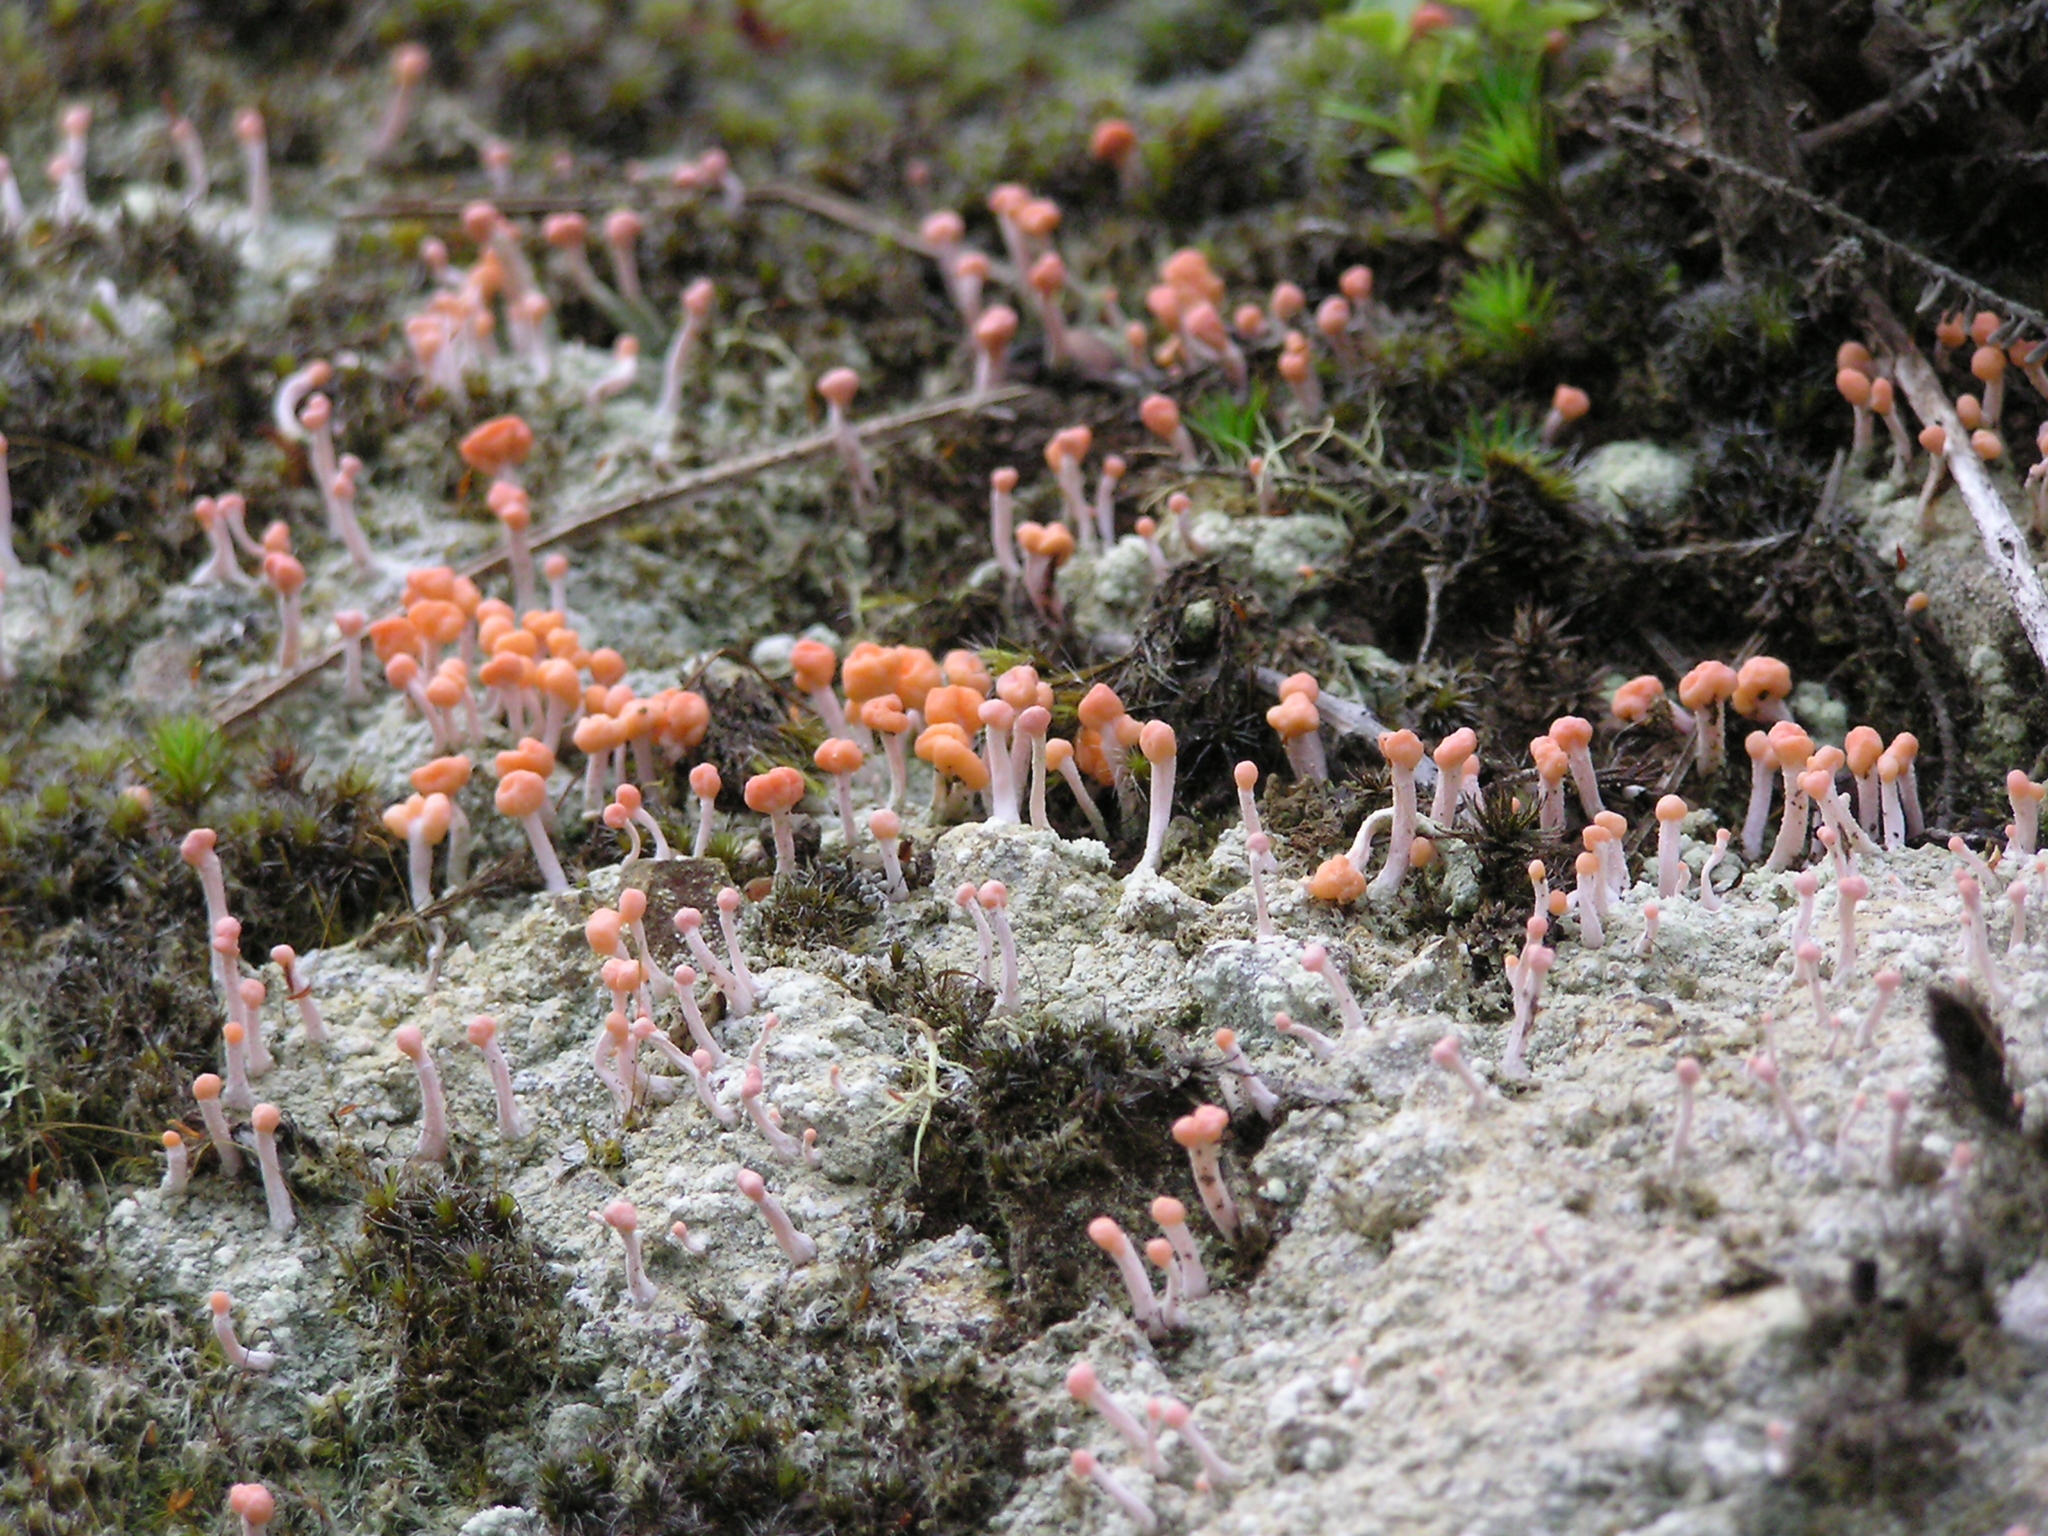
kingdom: Fungi
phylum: Ascomycota
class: Lecanoromycetes
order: Pertusariales
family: Icmadophilaceae
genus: Dibaeis
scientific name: Dibaeis arcuata
